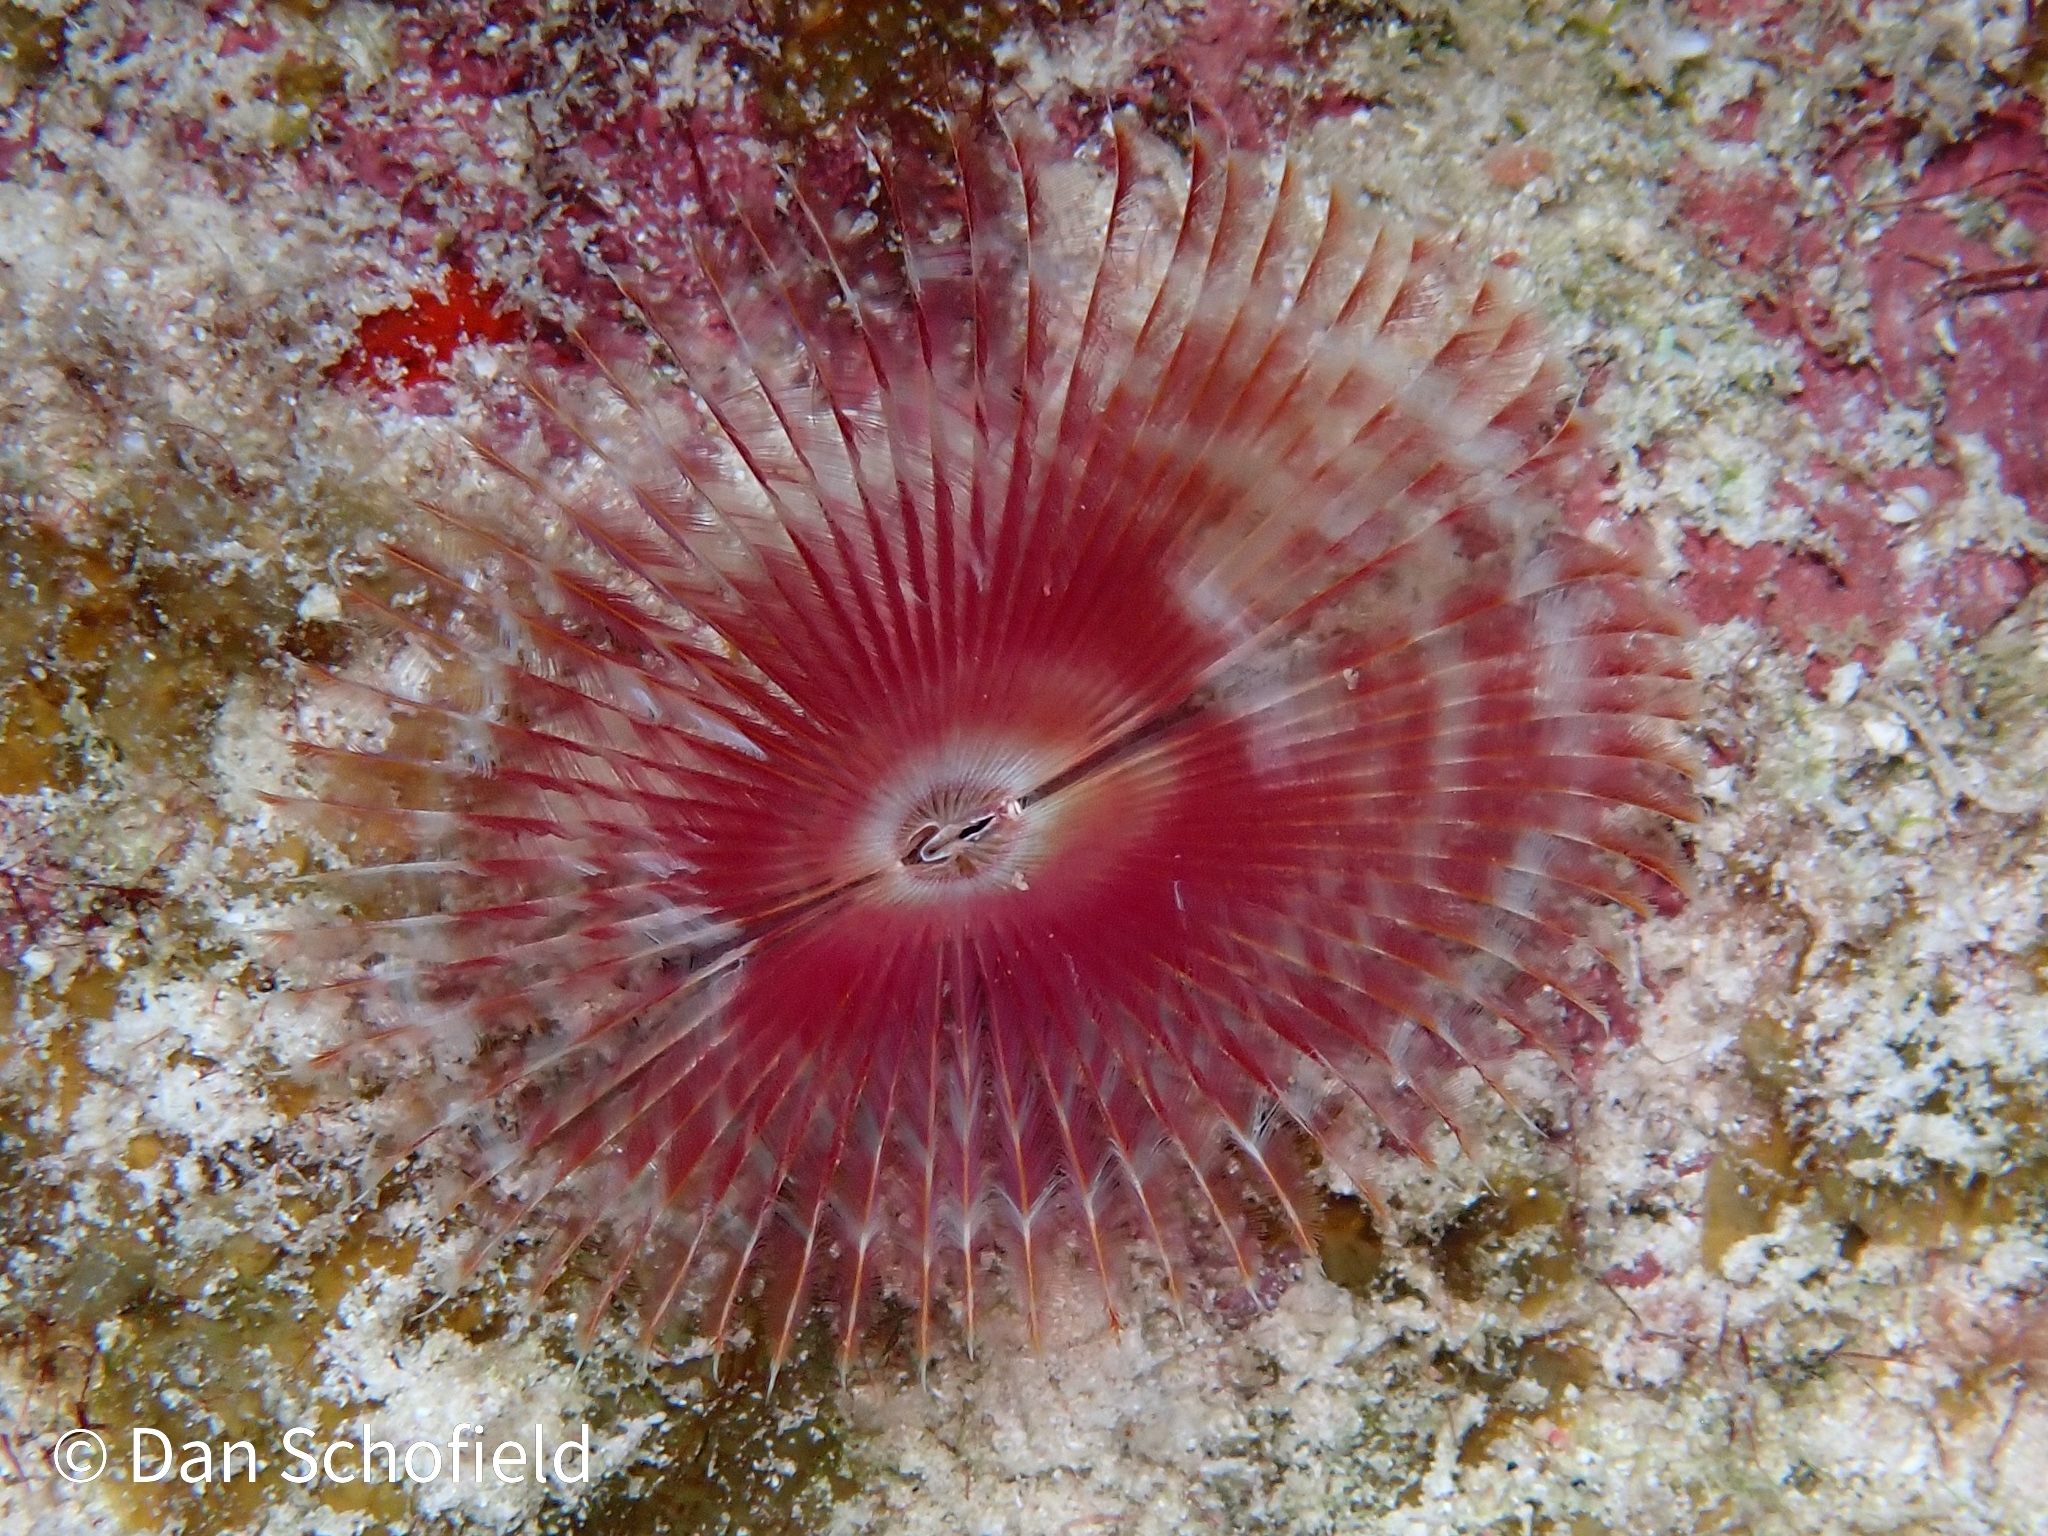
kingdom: Animalia
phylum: Annelida
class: Polychaeta
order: Sabellida
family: Sabellidae
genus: Anamobaea
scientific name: Anamobaea orstedii
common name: Split-crown feather duster
